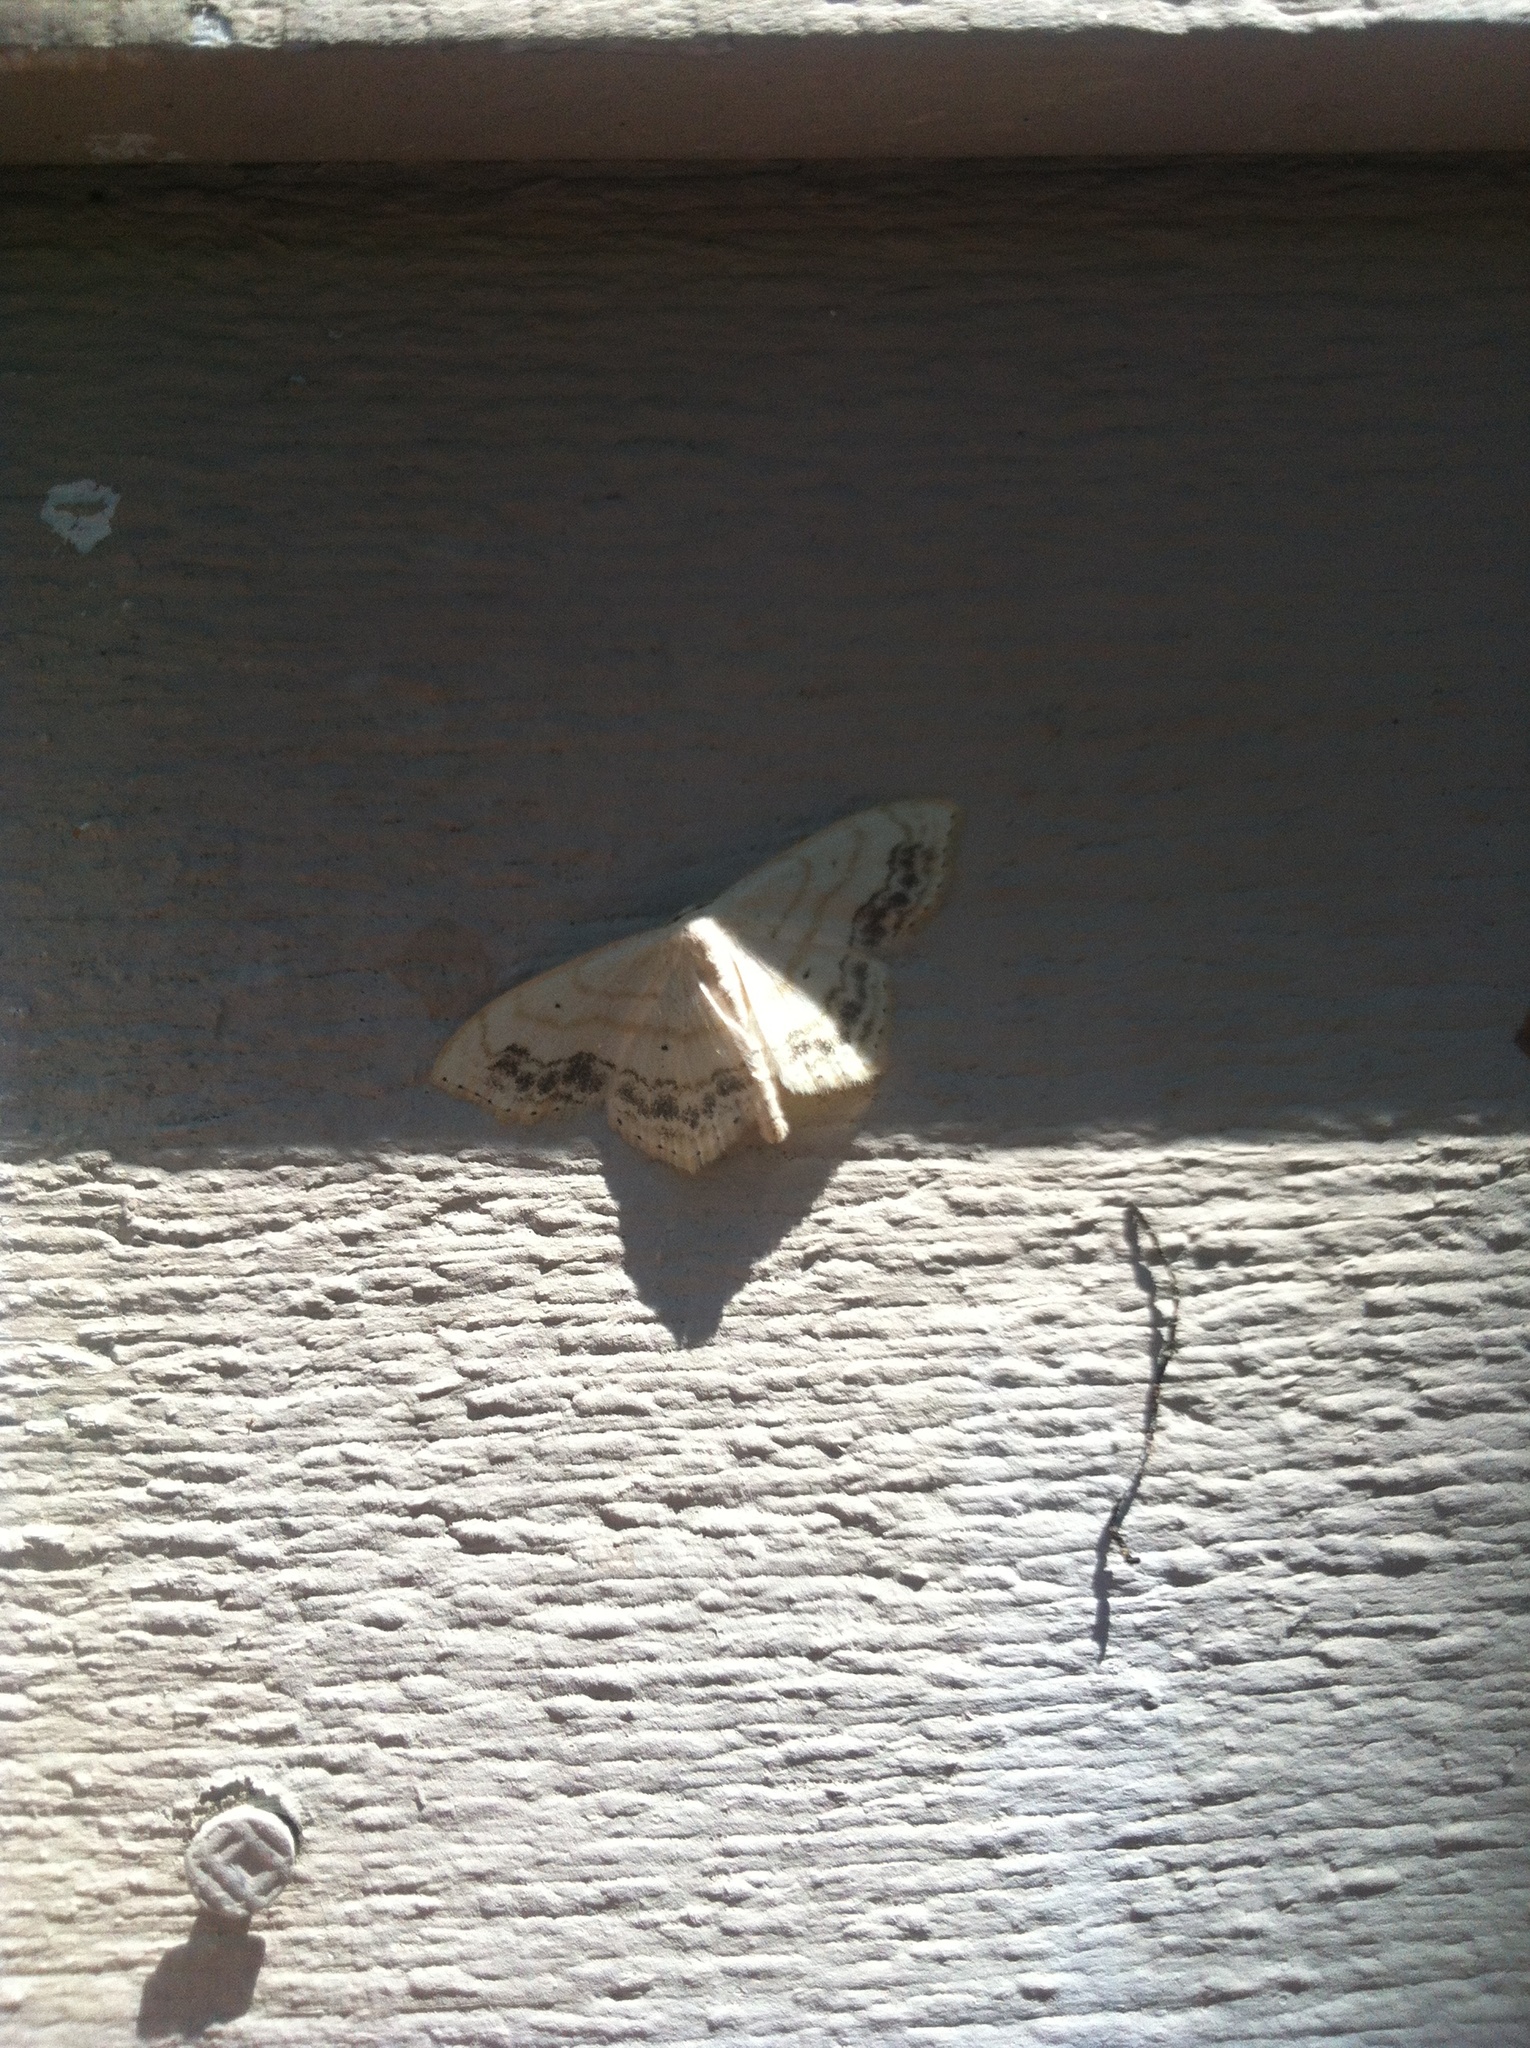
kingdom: Animalia
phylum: Arthropoda
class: Insecta
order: Lepidoptera
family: Geometridae
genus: Scopula
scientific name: Scopula limboundata
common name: Large lace border
